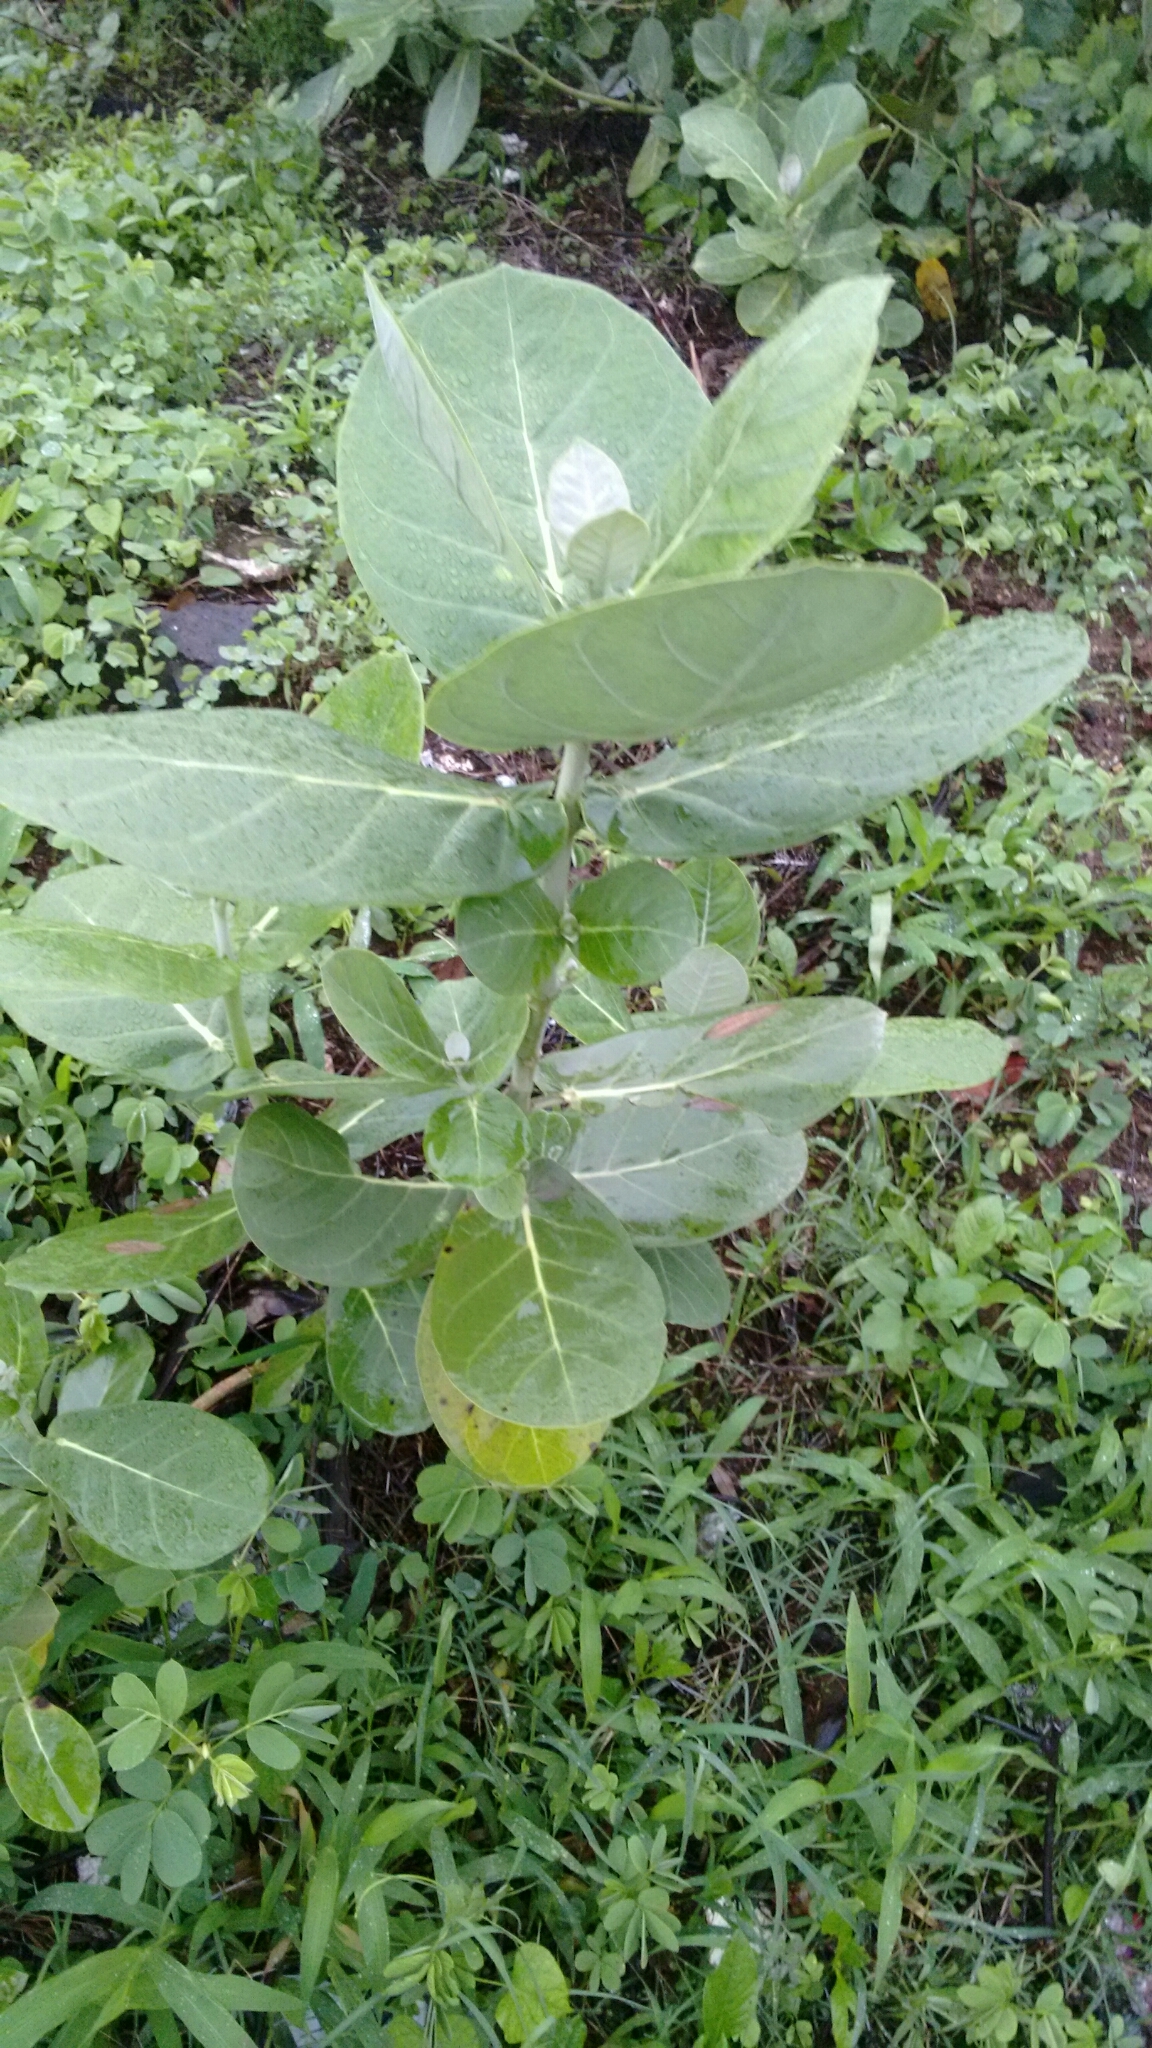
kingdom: Plantae
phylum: Tracheophyta
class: Magnoliopsida
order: Gentianales
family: Apocynaceae
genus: Calotropis
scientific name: Calotropis gigantea
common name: Crown flower
